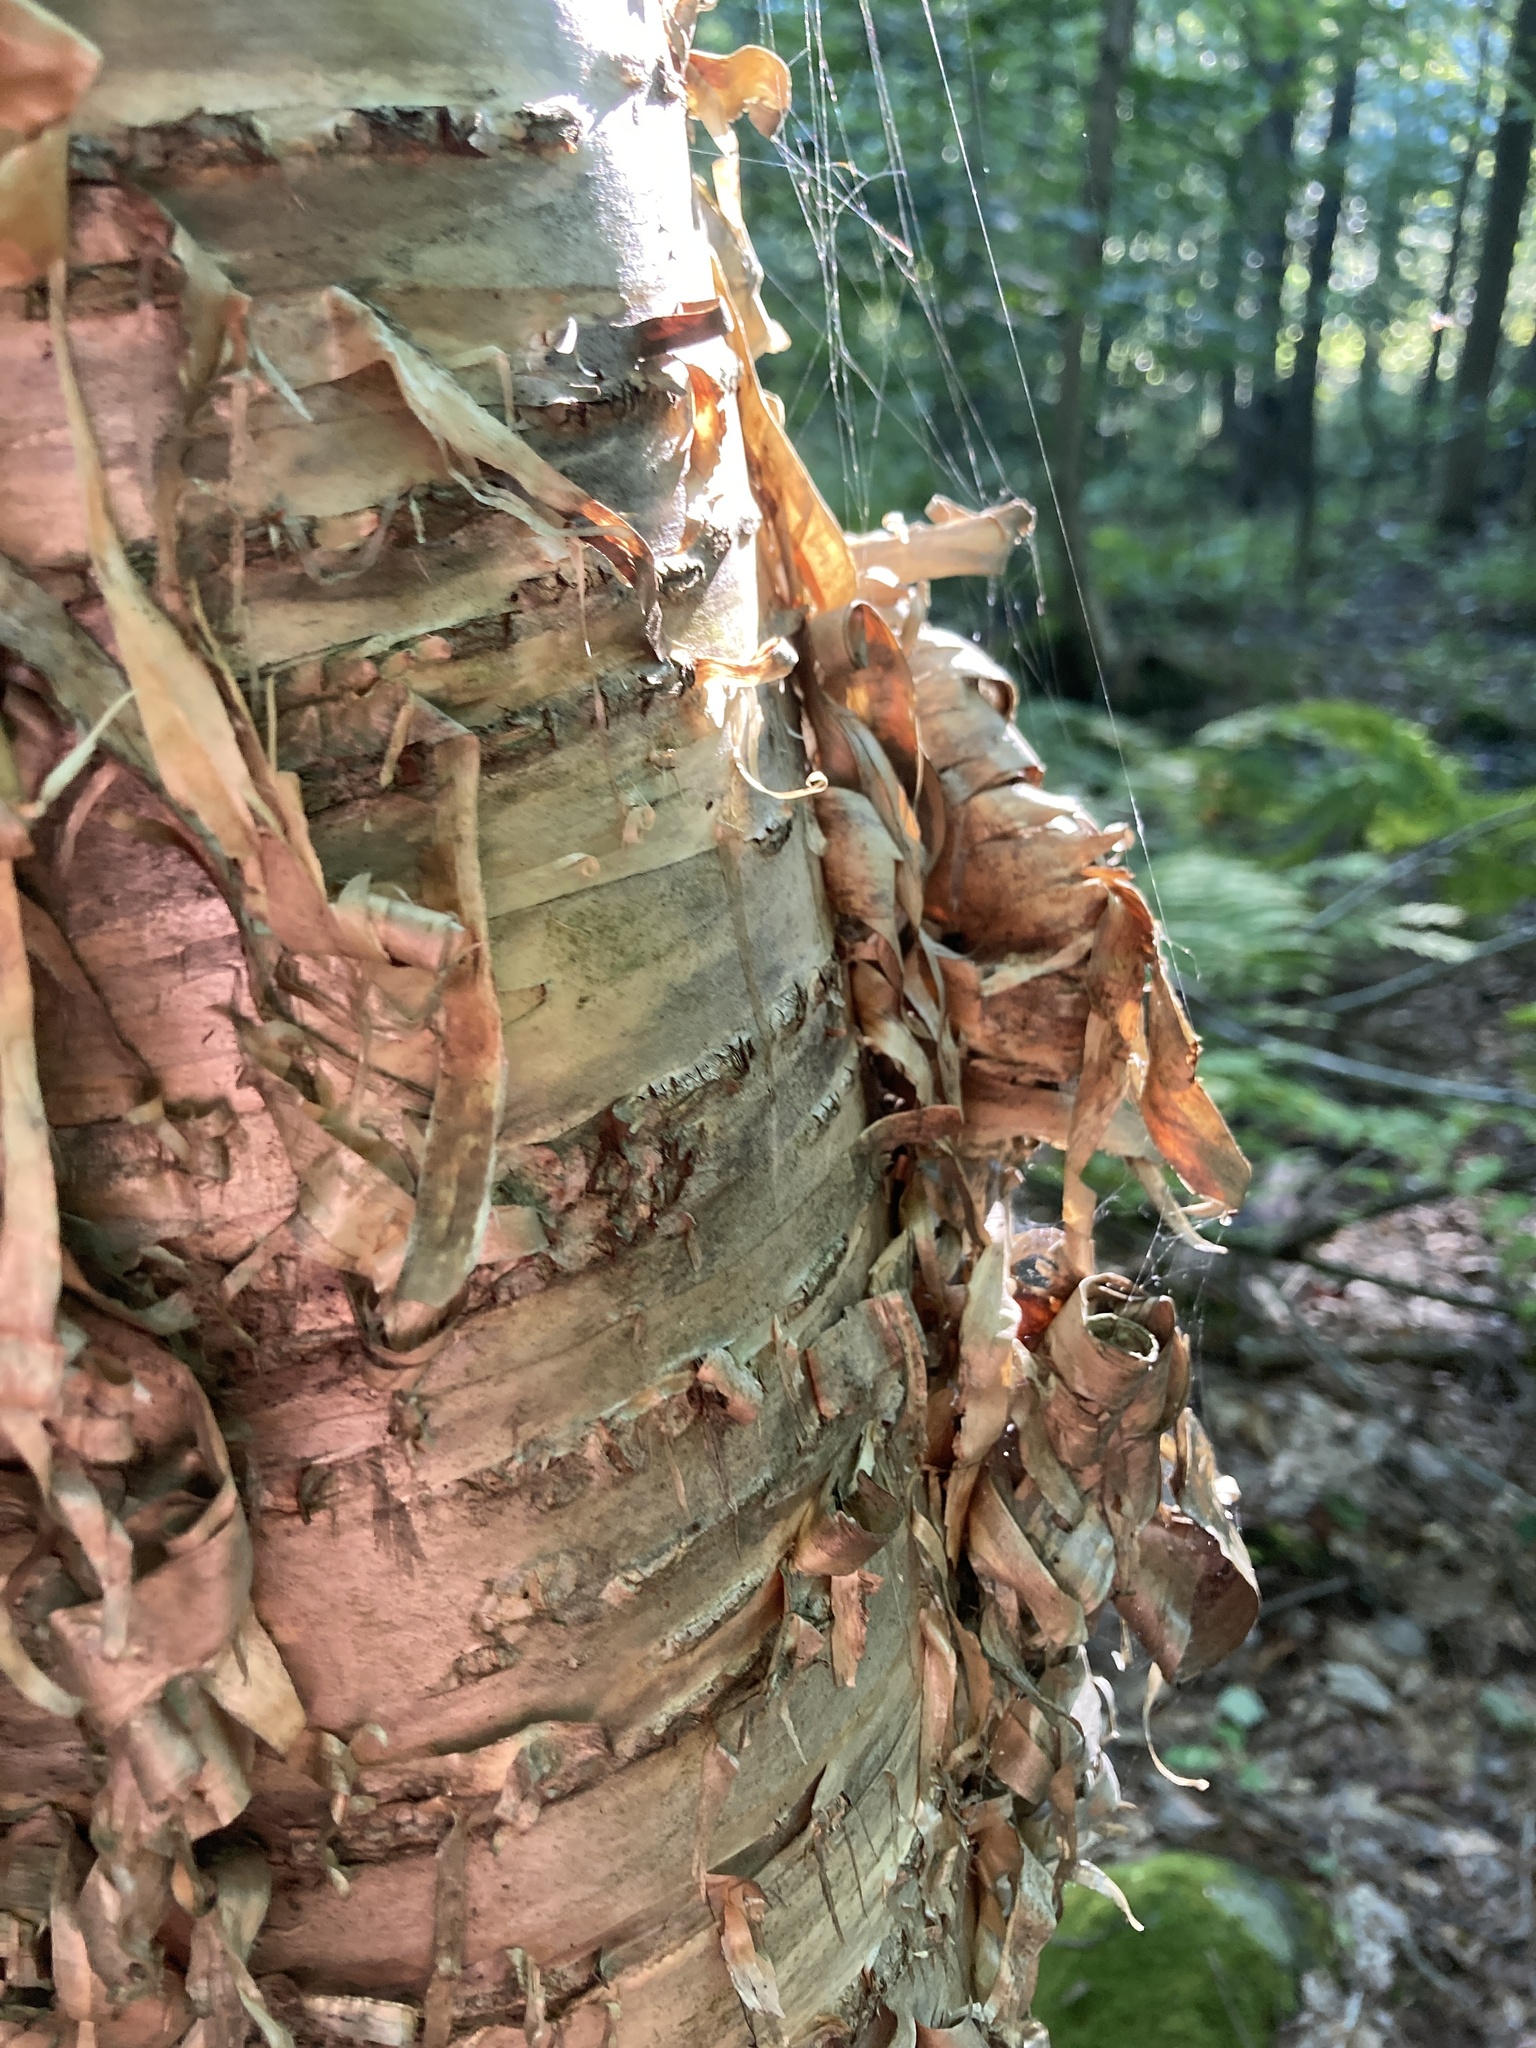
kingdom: Plantae
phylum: Tracheophyta
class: Magnoliopsida
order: Fagales
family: Betulaceae
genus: Betula
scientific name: Betula alleghaniensis
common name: Yellow birch
